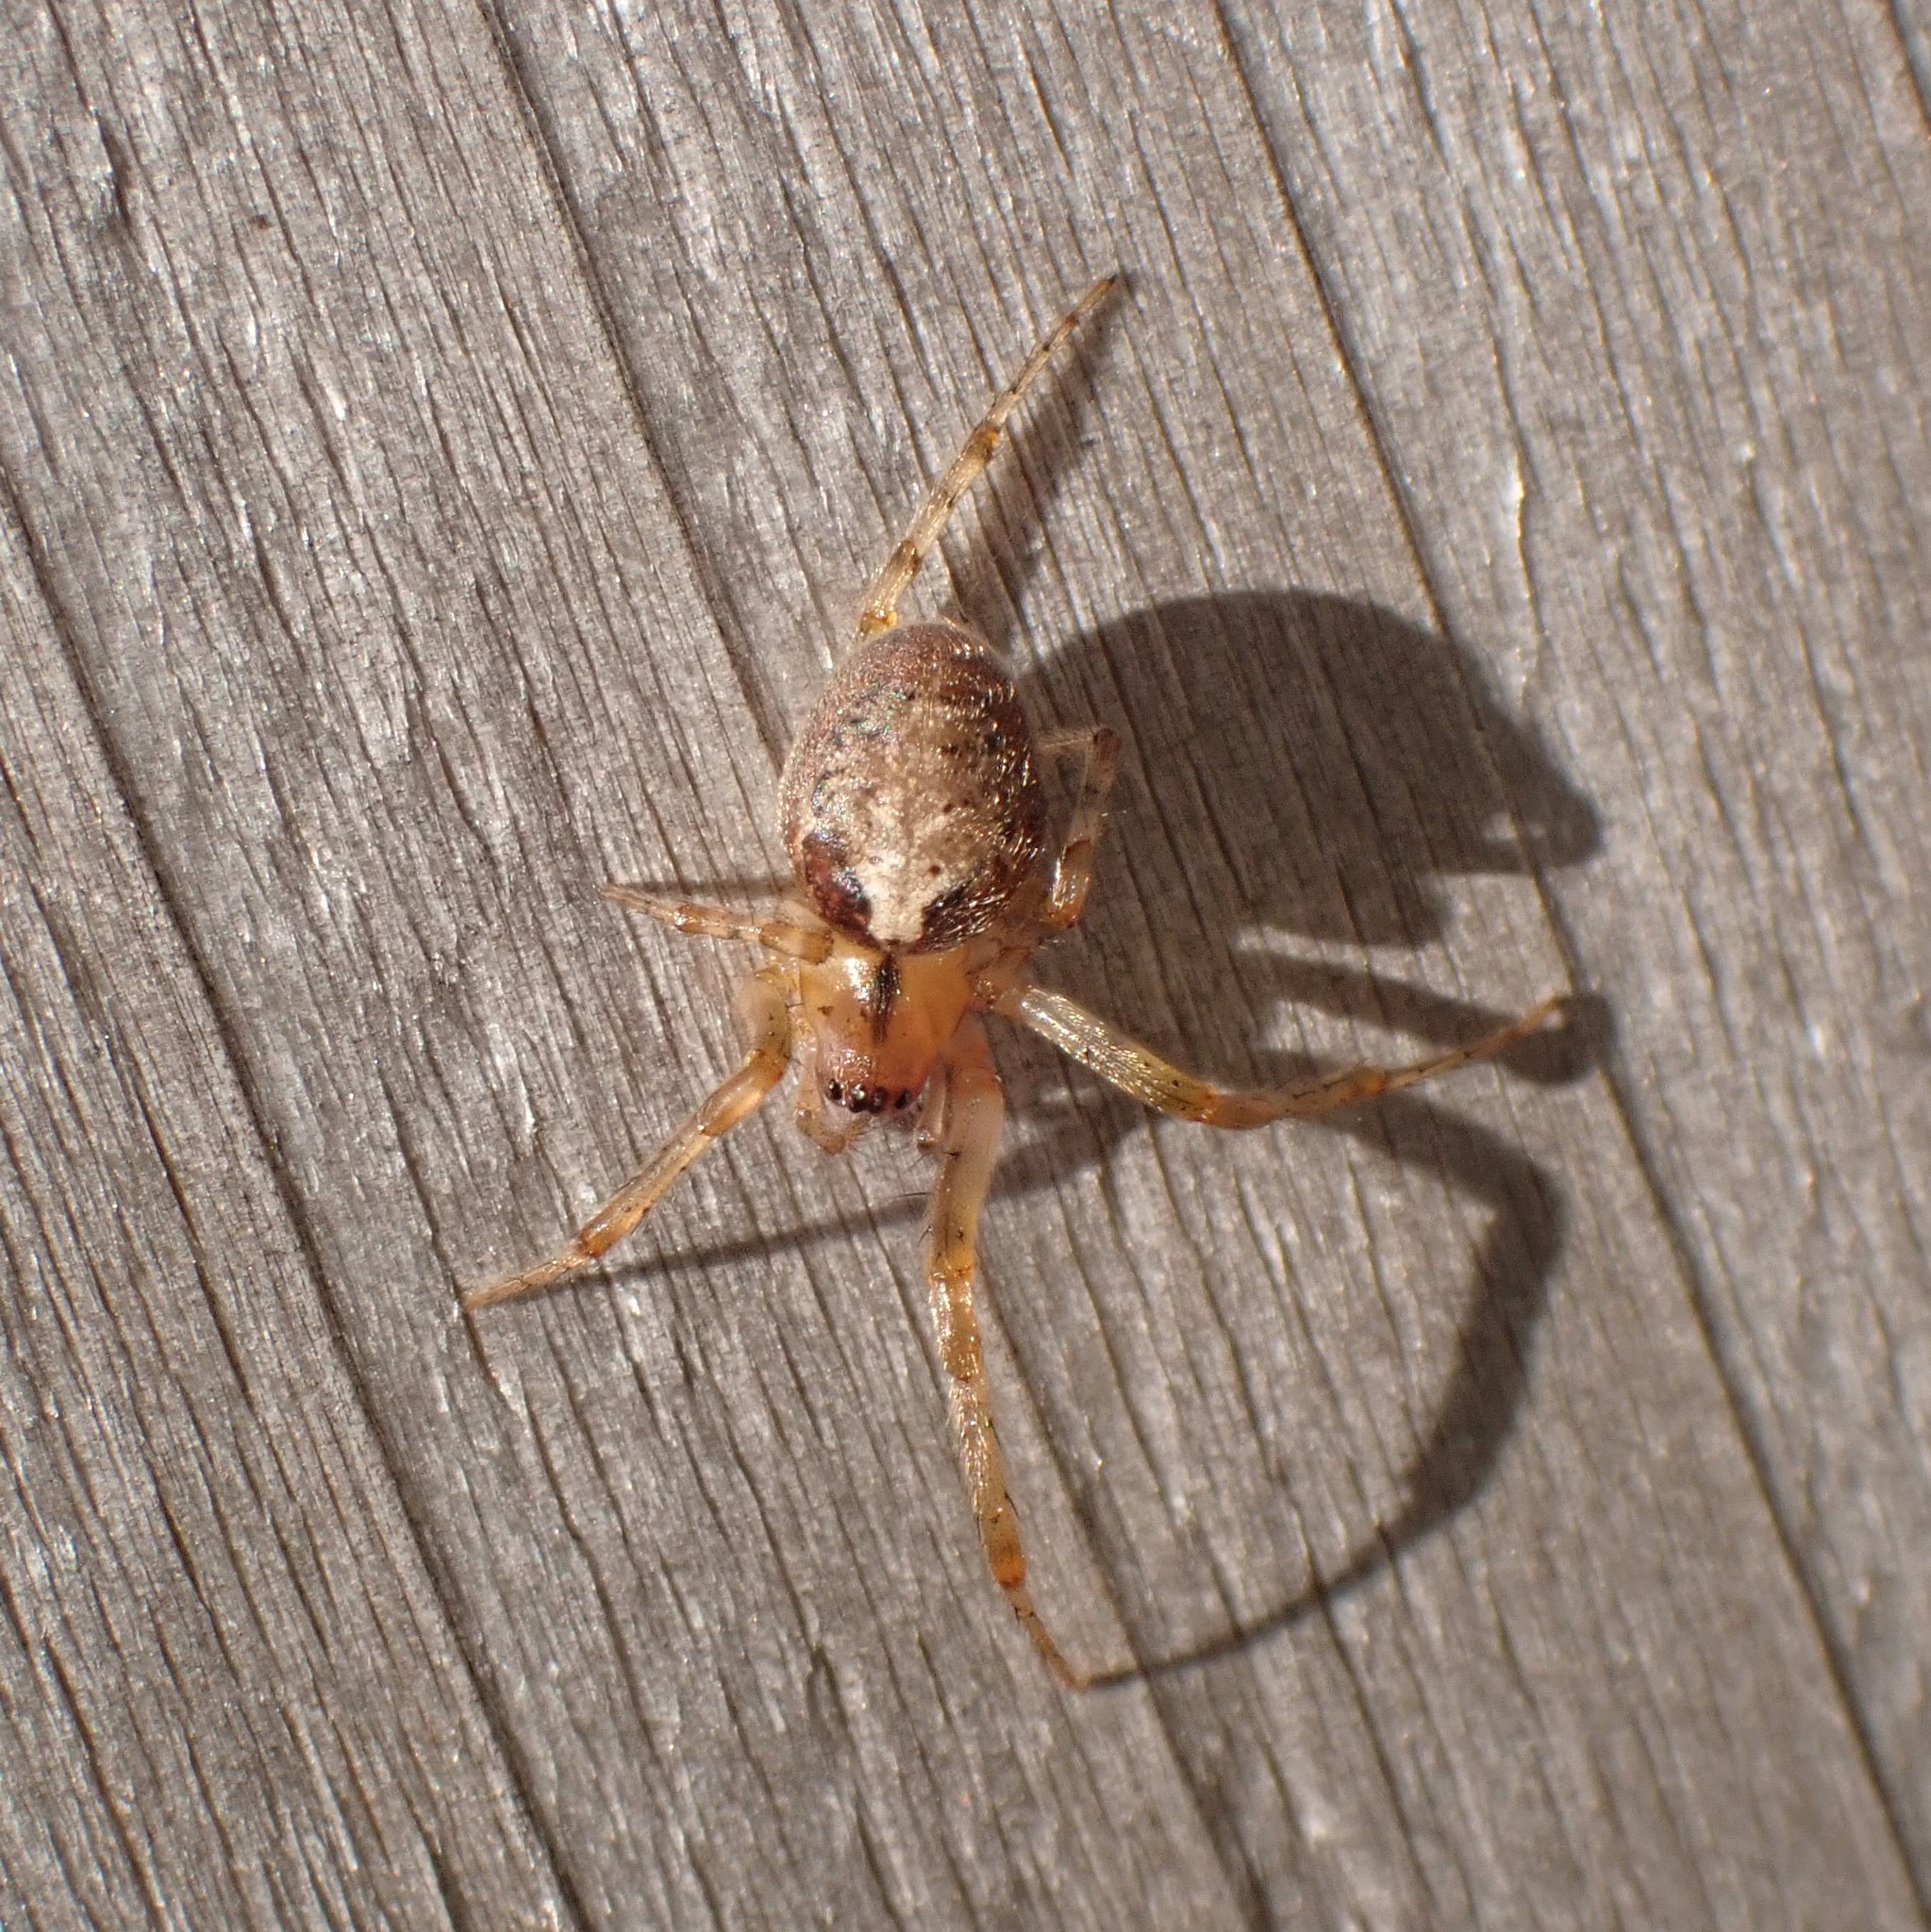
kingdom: Animalia
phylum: Arthropoda
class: Arachnida
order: Araneae
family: Araneidae
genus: Zygiella
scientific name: Zygiella x-notata
